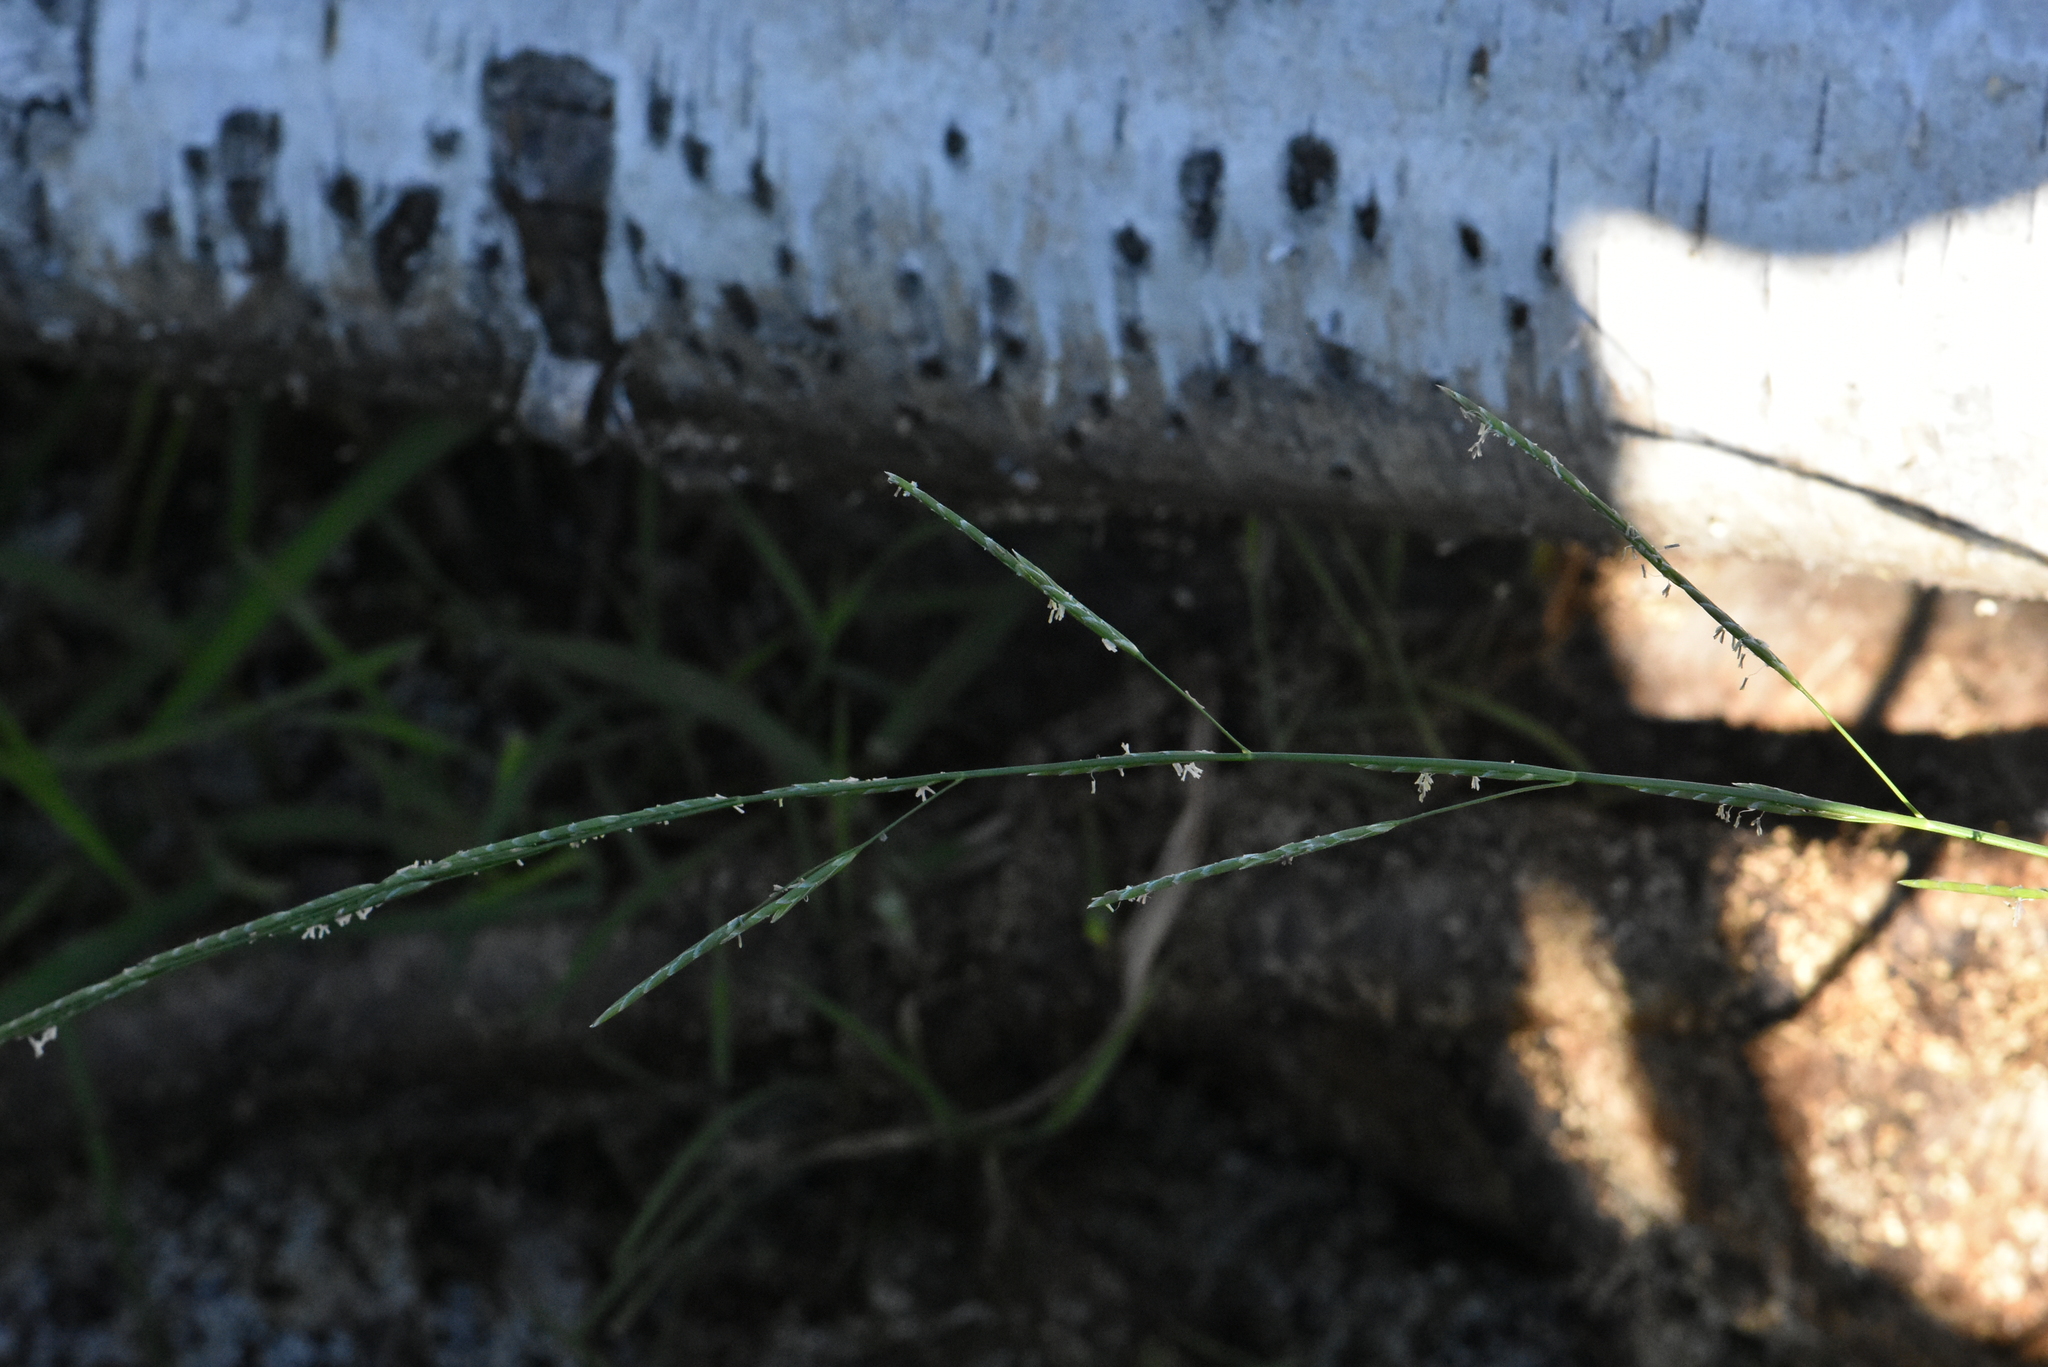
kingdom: Plantae
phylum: Tracheophyta
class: Liliopsida
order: Poales
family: Poaceae
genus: Glyceria
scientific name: Glyceria notata
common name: Plicate sweet-grass
